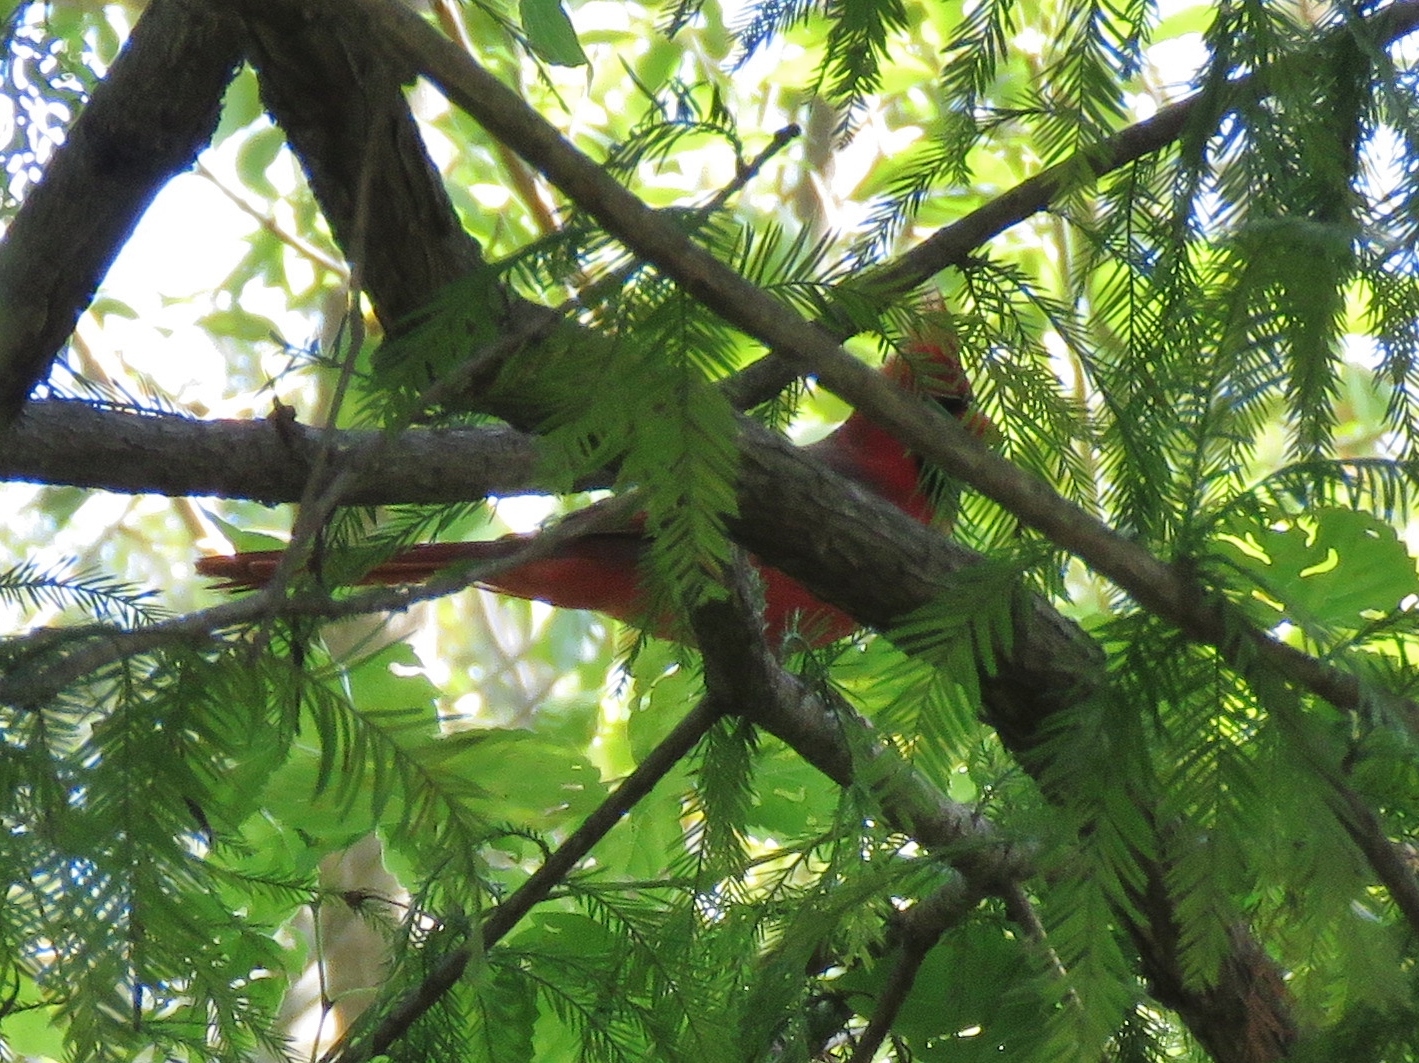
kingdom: Animalia
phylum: Chordata
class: Aves
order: Passeriformes
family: Cardinalidae
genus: Cardinalis
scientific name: Cardinalis cardinalis
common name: Northern cardinal
